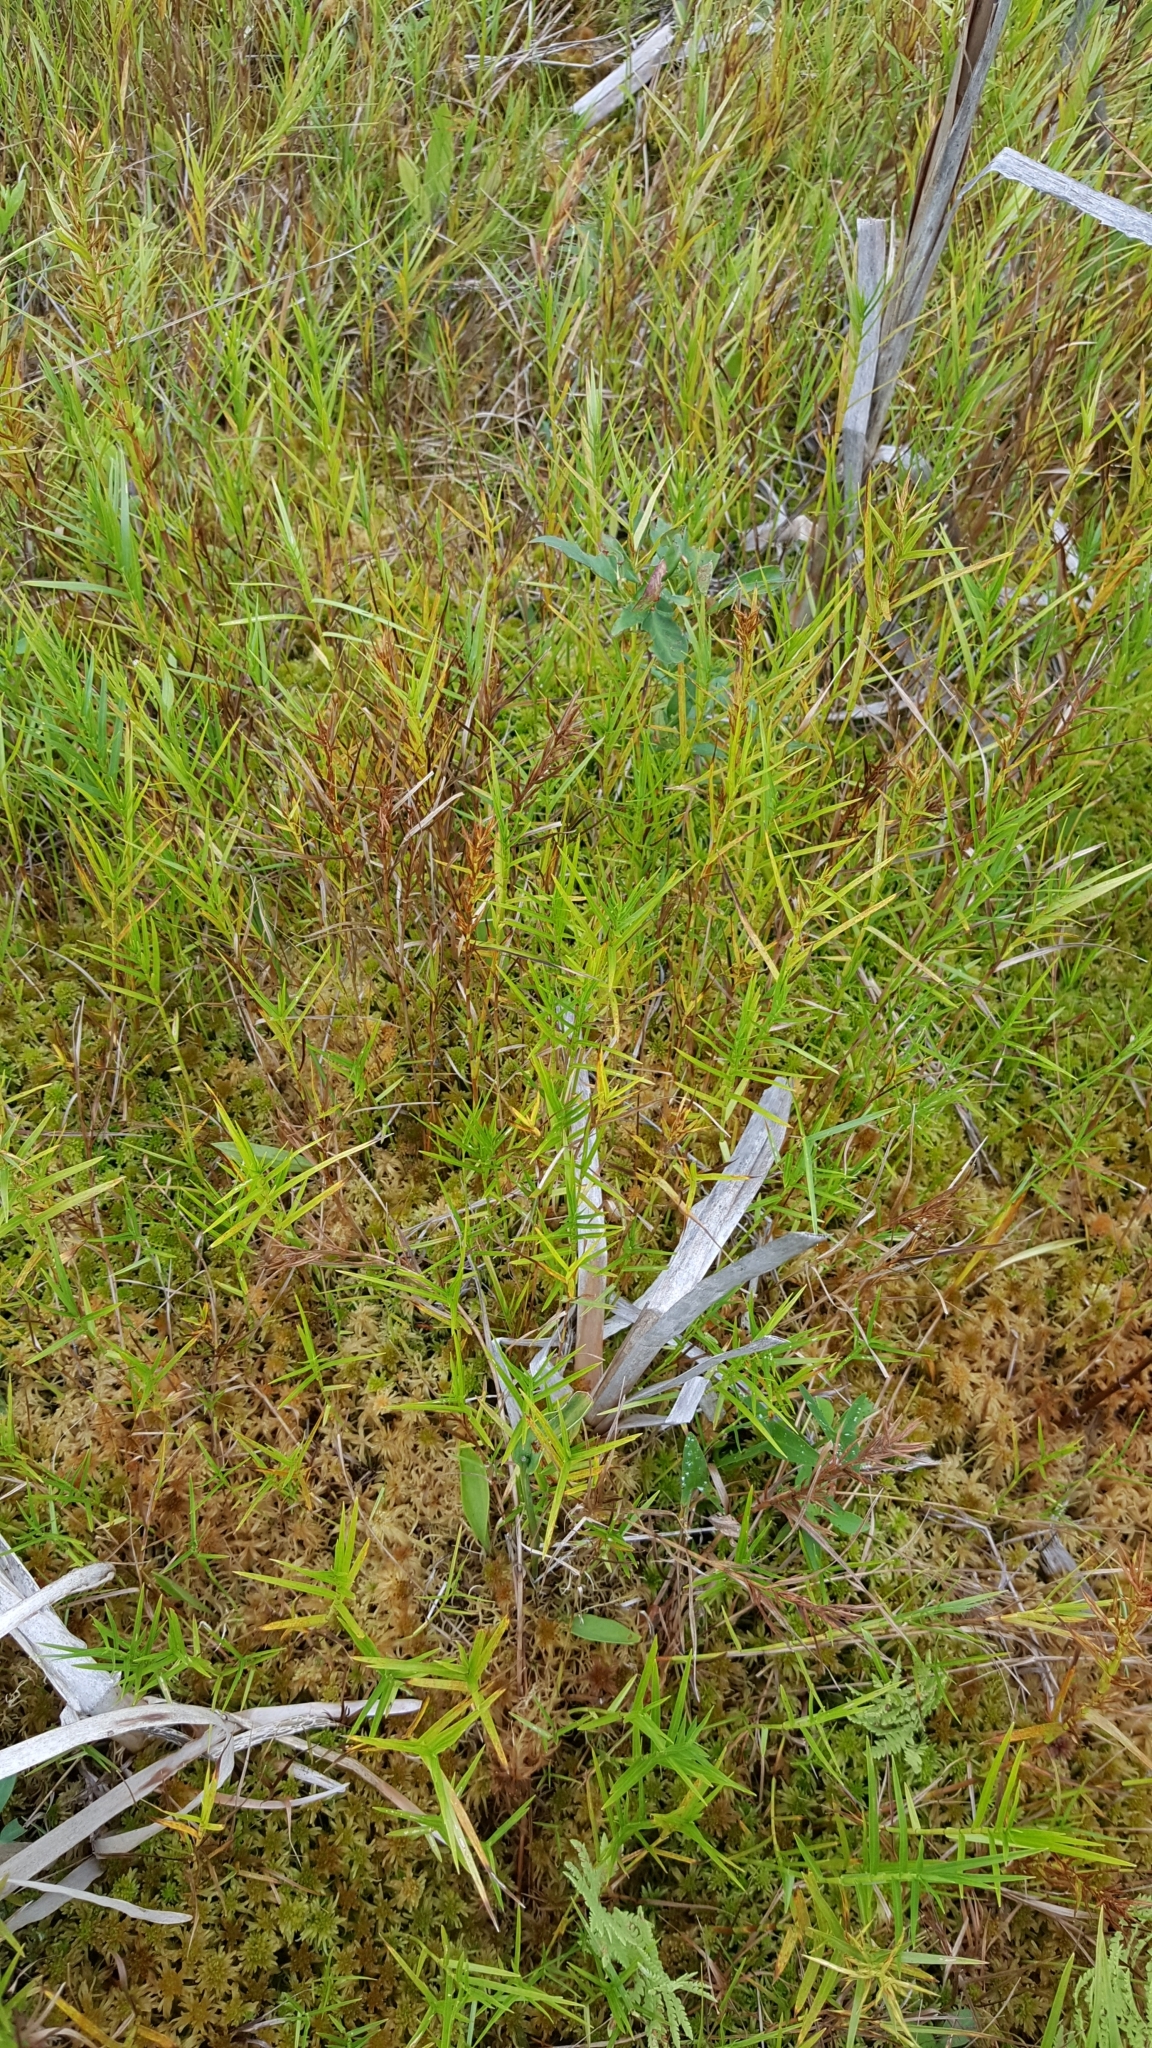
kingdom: Plantae
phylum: Tracheophyta
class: Liliopsida
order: Poales
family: Cyperaceae
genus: Dulichium
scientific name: Dulichium arundinaceum
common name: Three-way sedge
